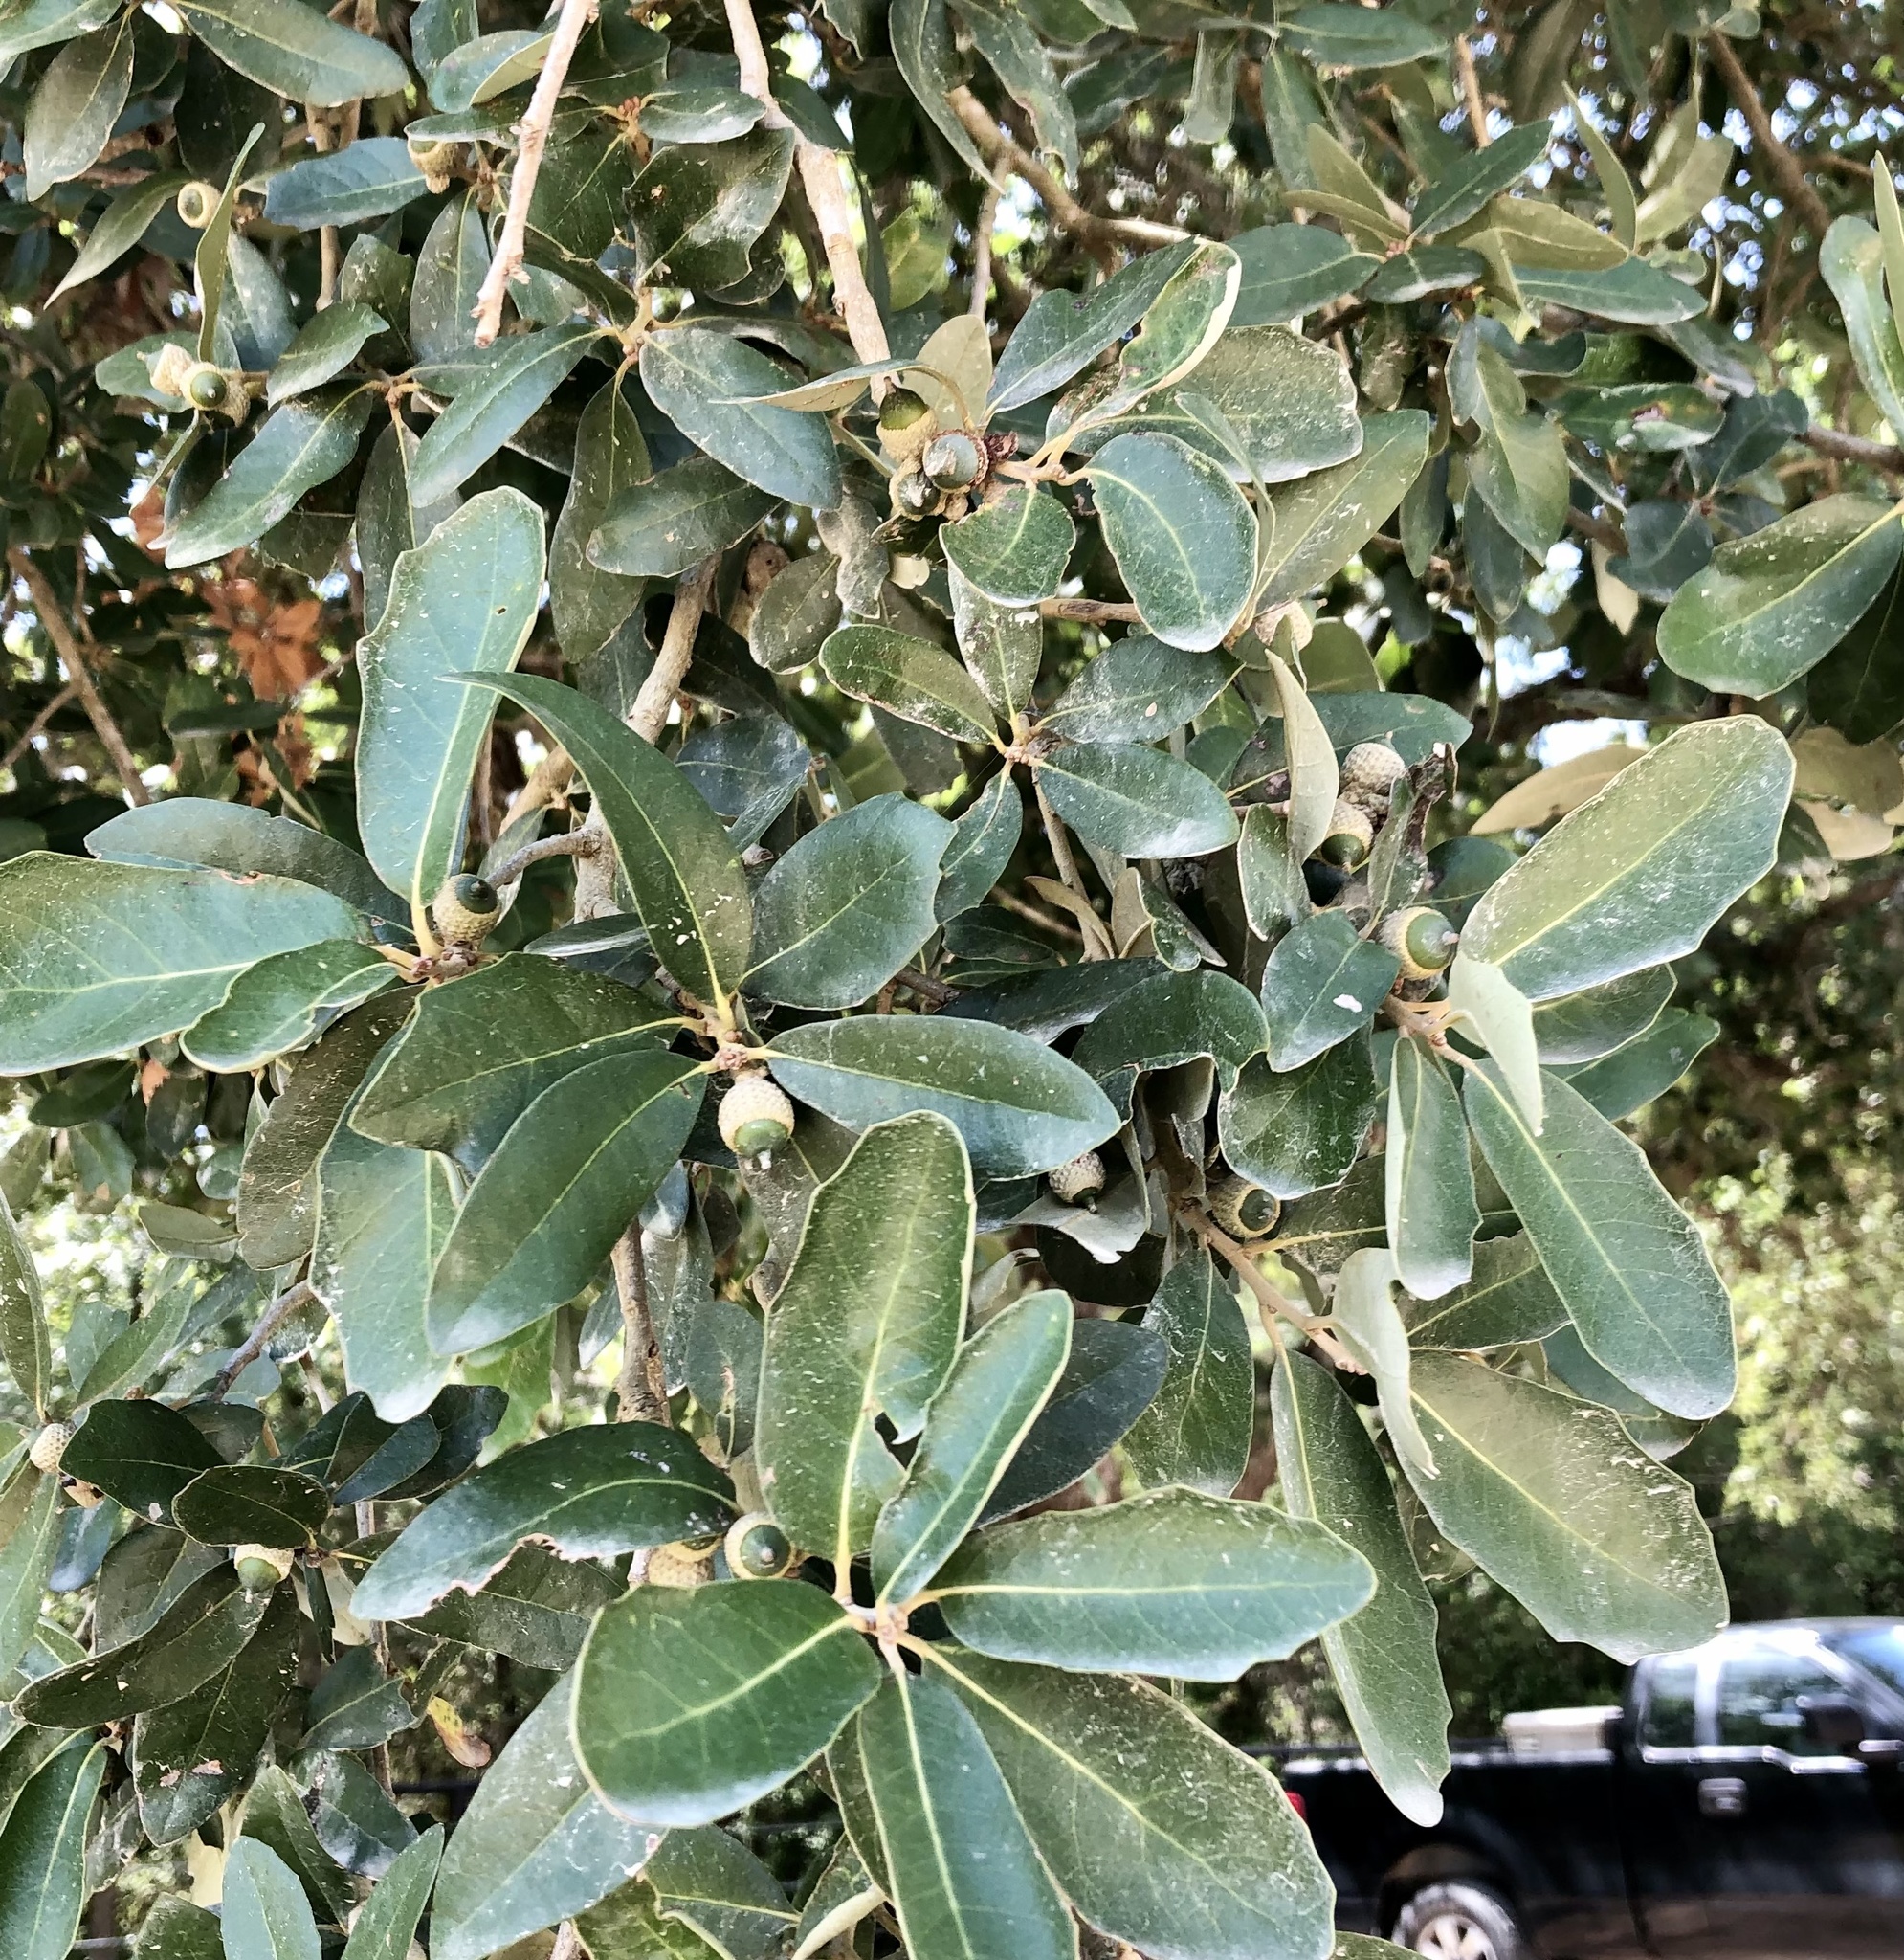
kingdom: Plantae
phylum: Tracheophyta
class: Magnoliopsida
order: Fagales
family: Fagaceae
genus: Quercus
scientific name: Quercus virginiana
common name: Southern live oak
